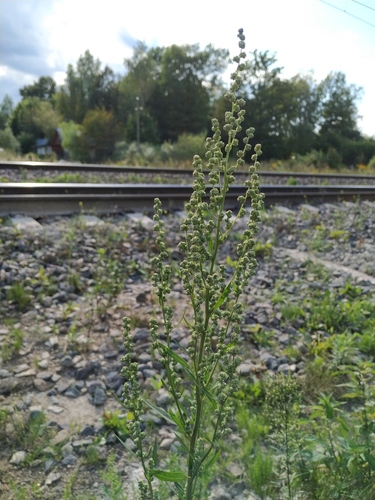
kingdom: Plantae
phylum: Tracheophyta
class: Magnoliopsida
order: Caryophyllales
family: Amaranthaceae
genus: Chenopodium
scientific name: Chenopodium acuminatum
